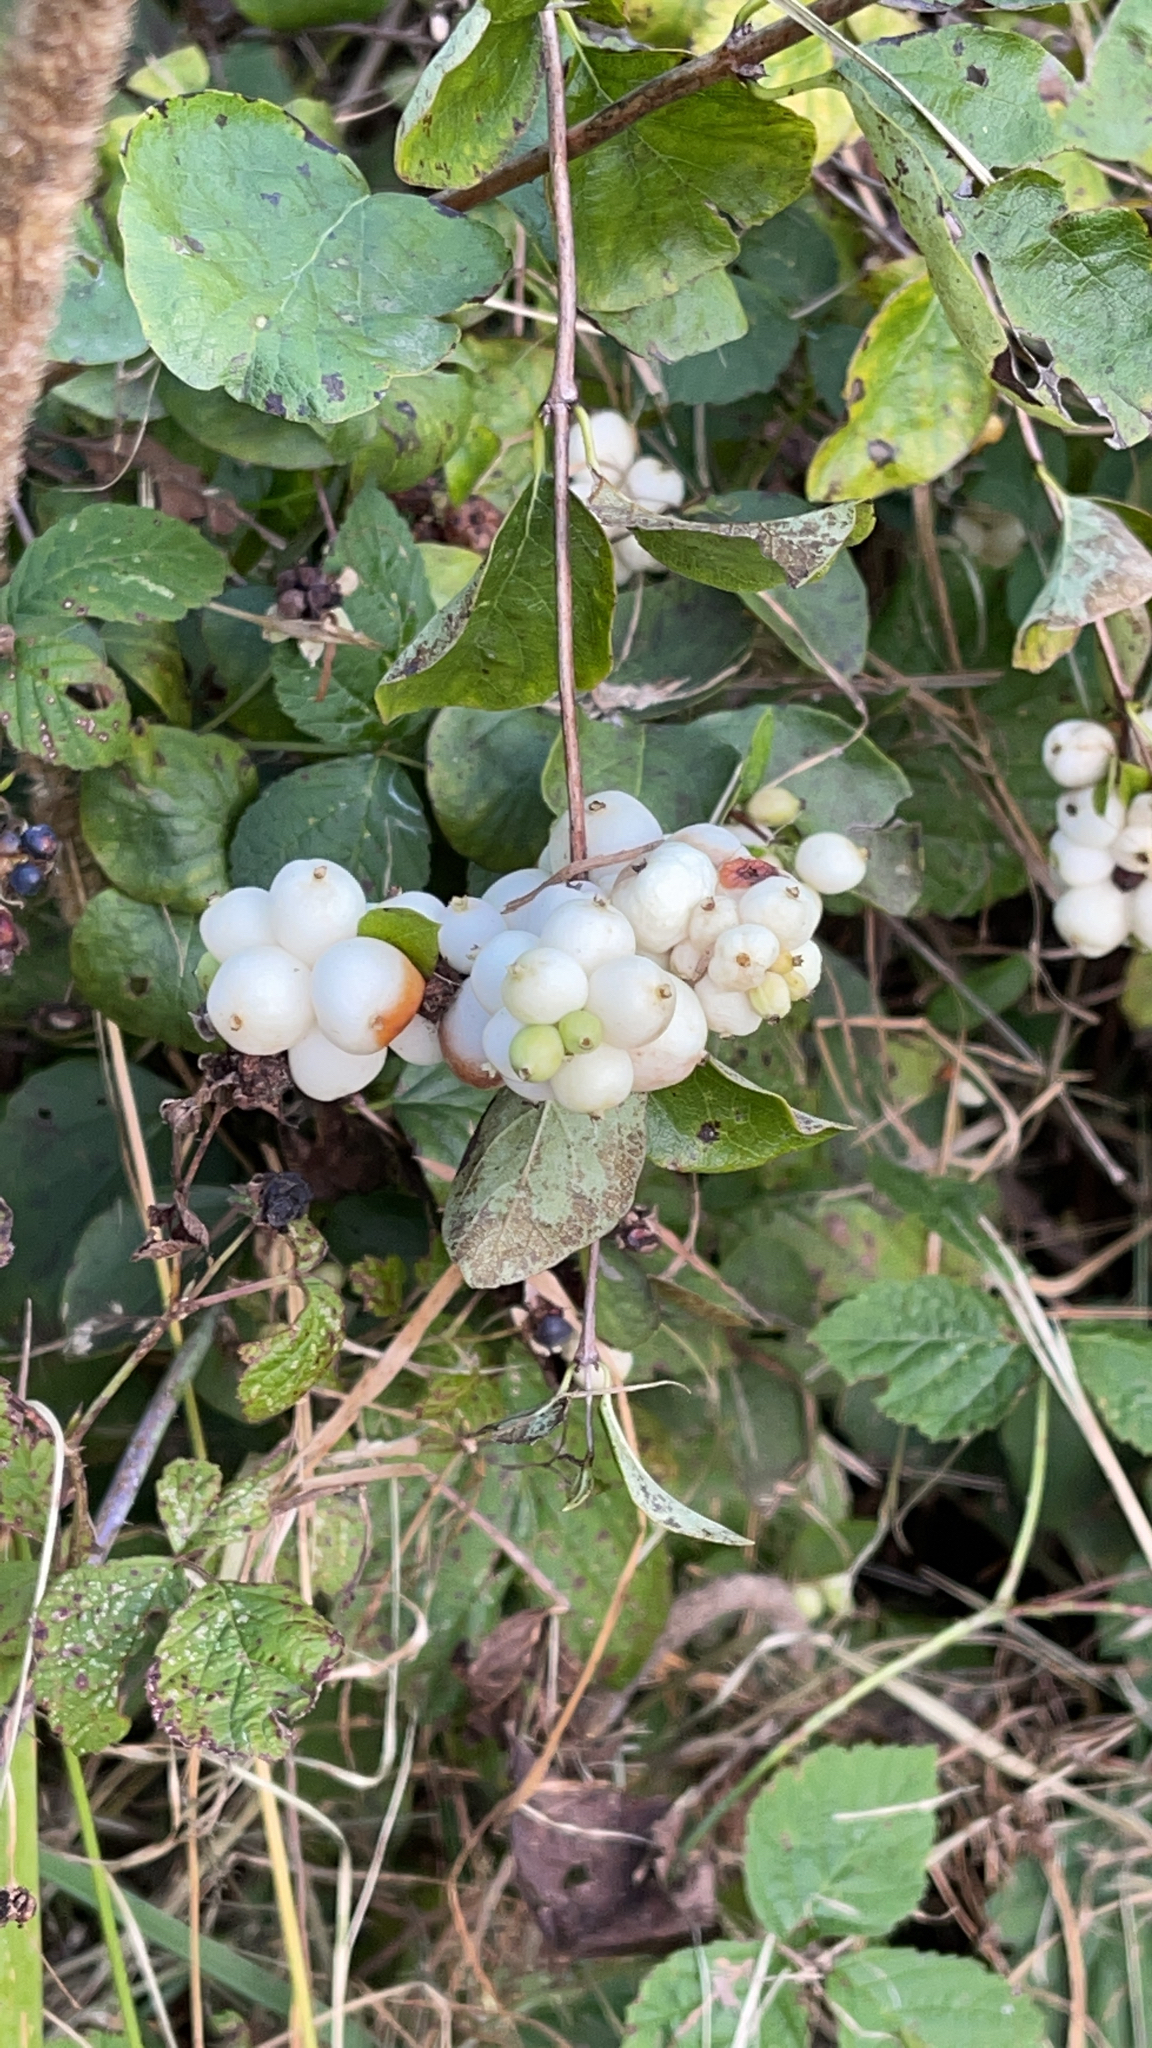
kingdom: Plantae
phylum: Tracheophyta
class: Magnoliopsida
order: Dipsacales
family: Caprifoliaceae
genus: Symphoricarpos
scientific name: Symphoricarpos albus
